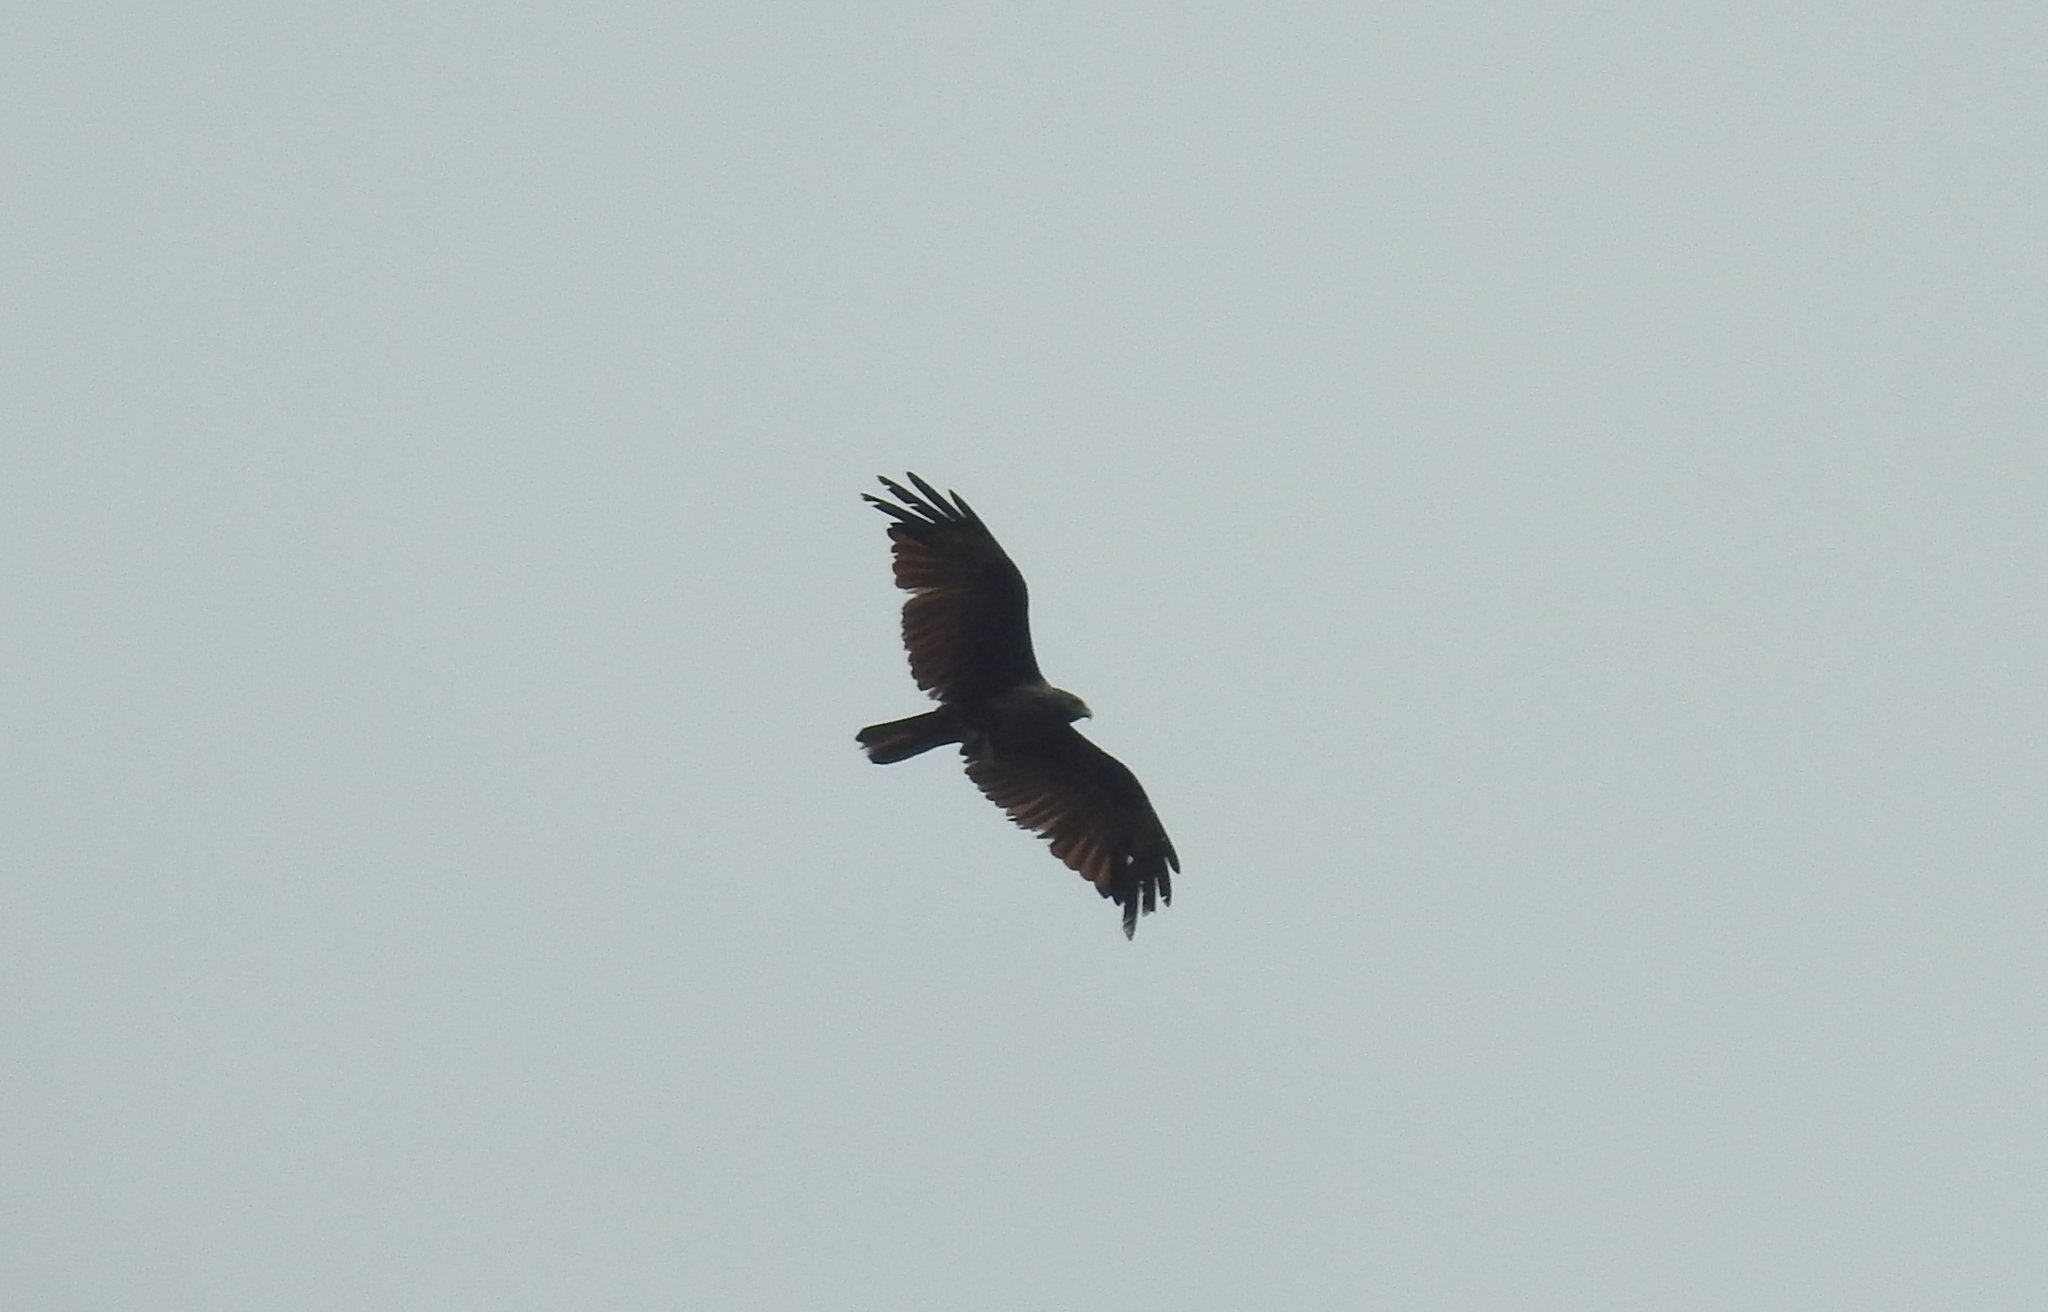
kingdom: Animalia
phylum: Chordata
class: Aves
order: Accipitriformes
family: Accipitridae
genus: Haliastur
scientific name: Haliastur indus
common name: Brahminy kite
